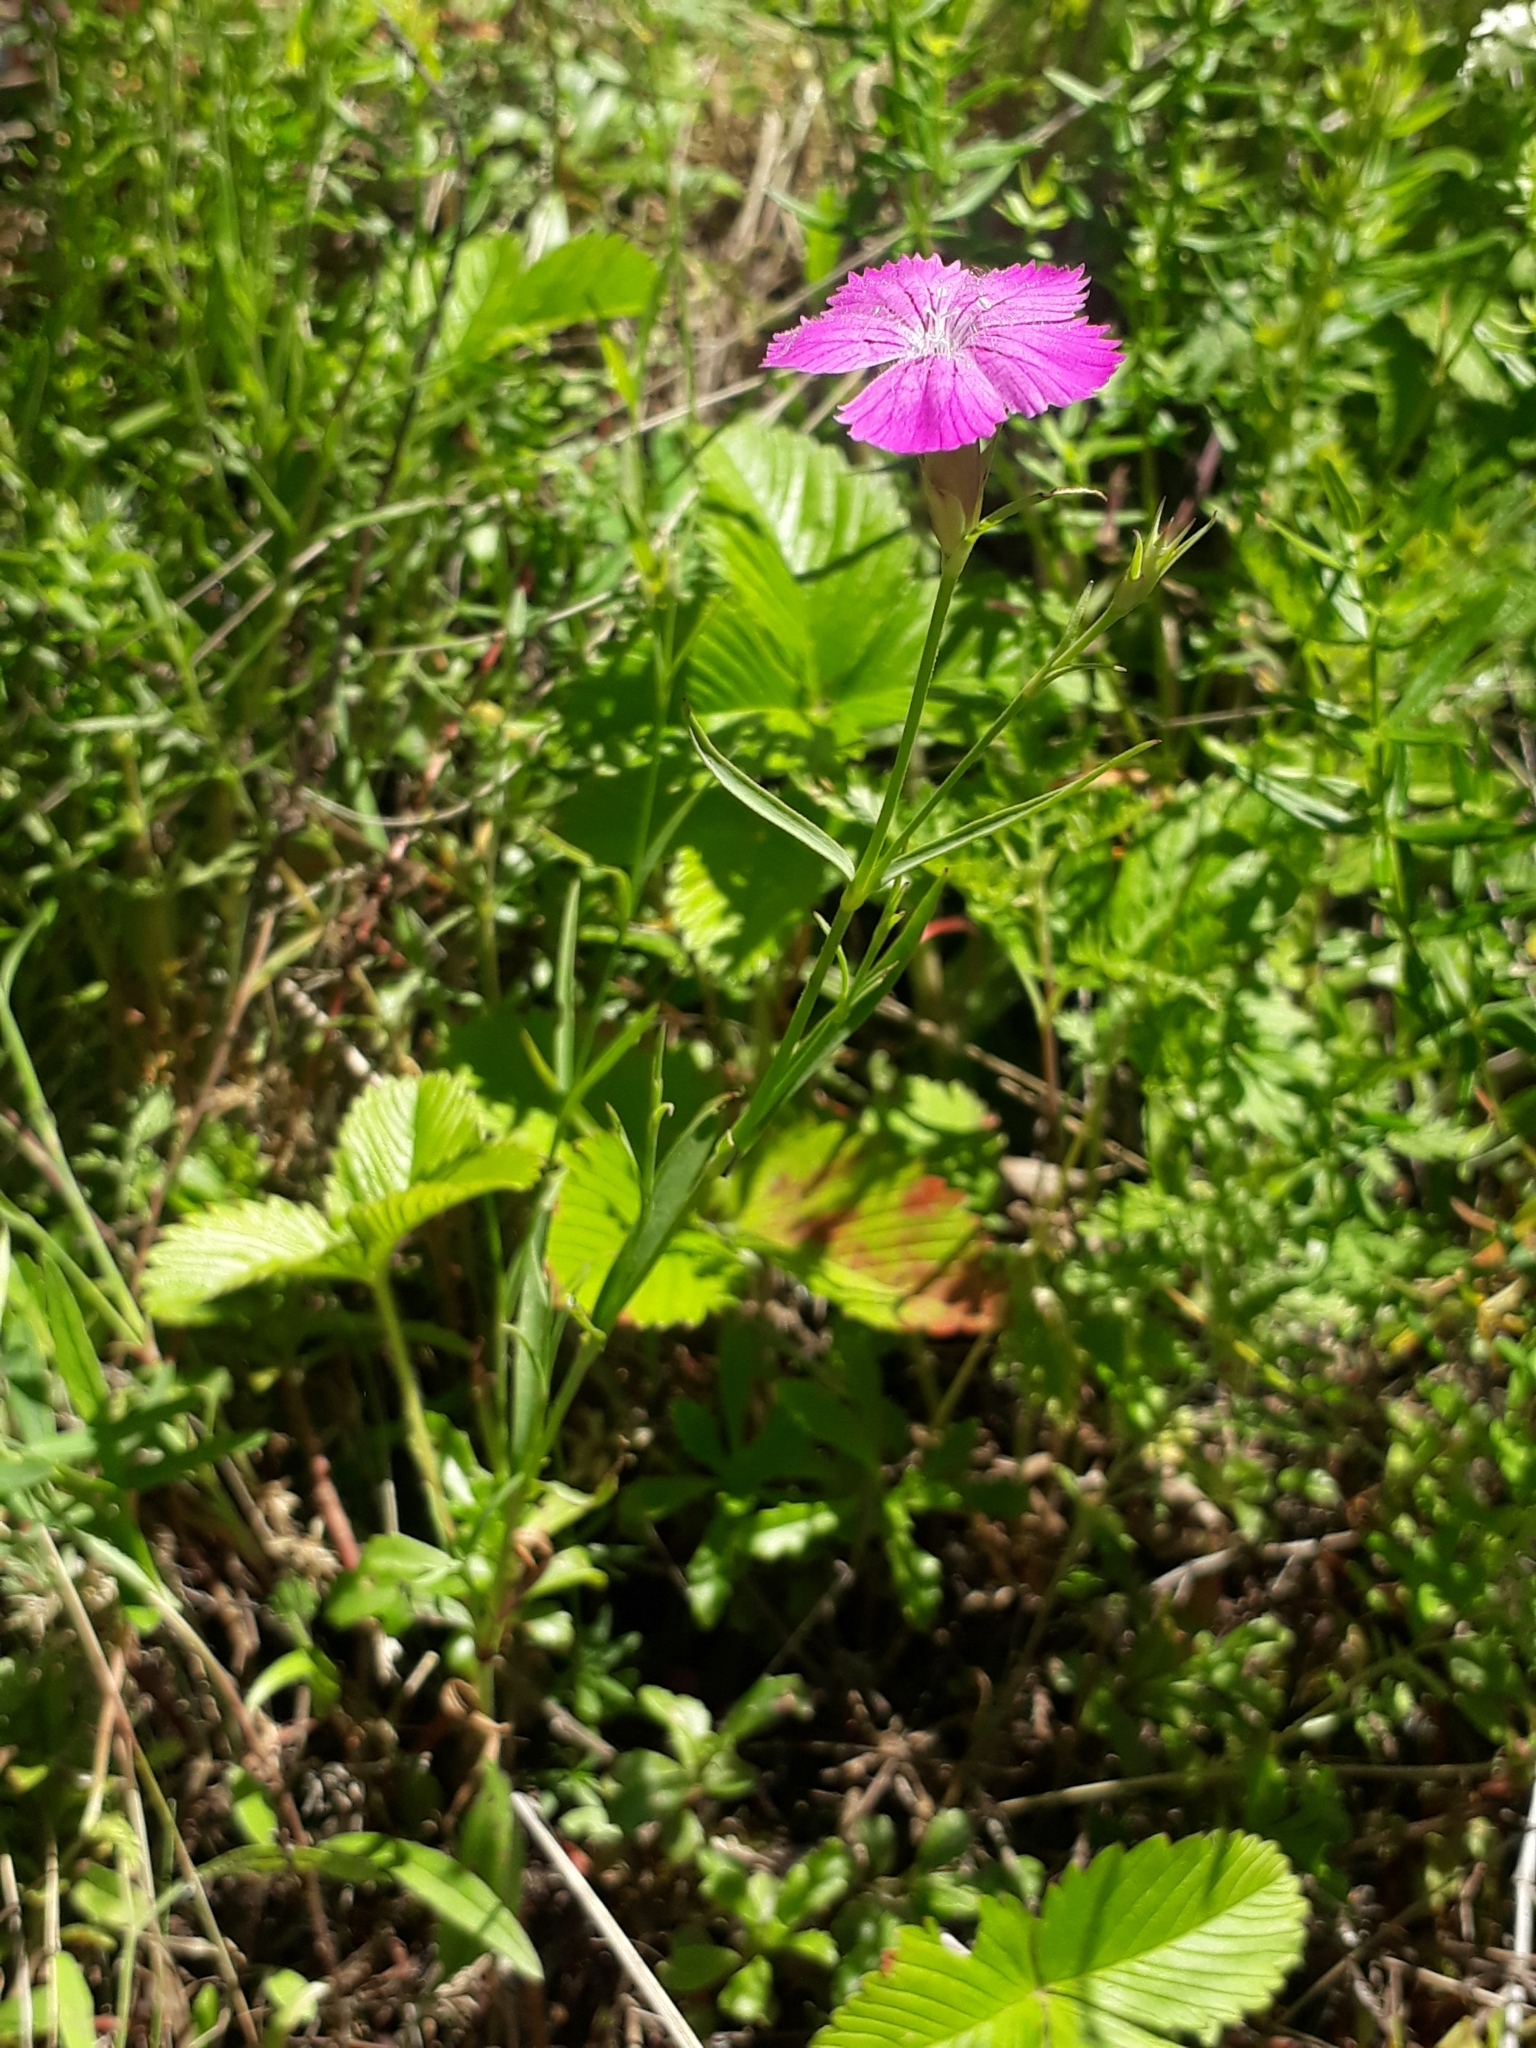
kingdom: Plantae
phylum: Tracheophyta
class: Magnoliopsida
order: Caryophyllales
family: Caryophyllaceae
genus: Dianthus
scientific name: Dianthus chinensis
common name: Rainbow pink
